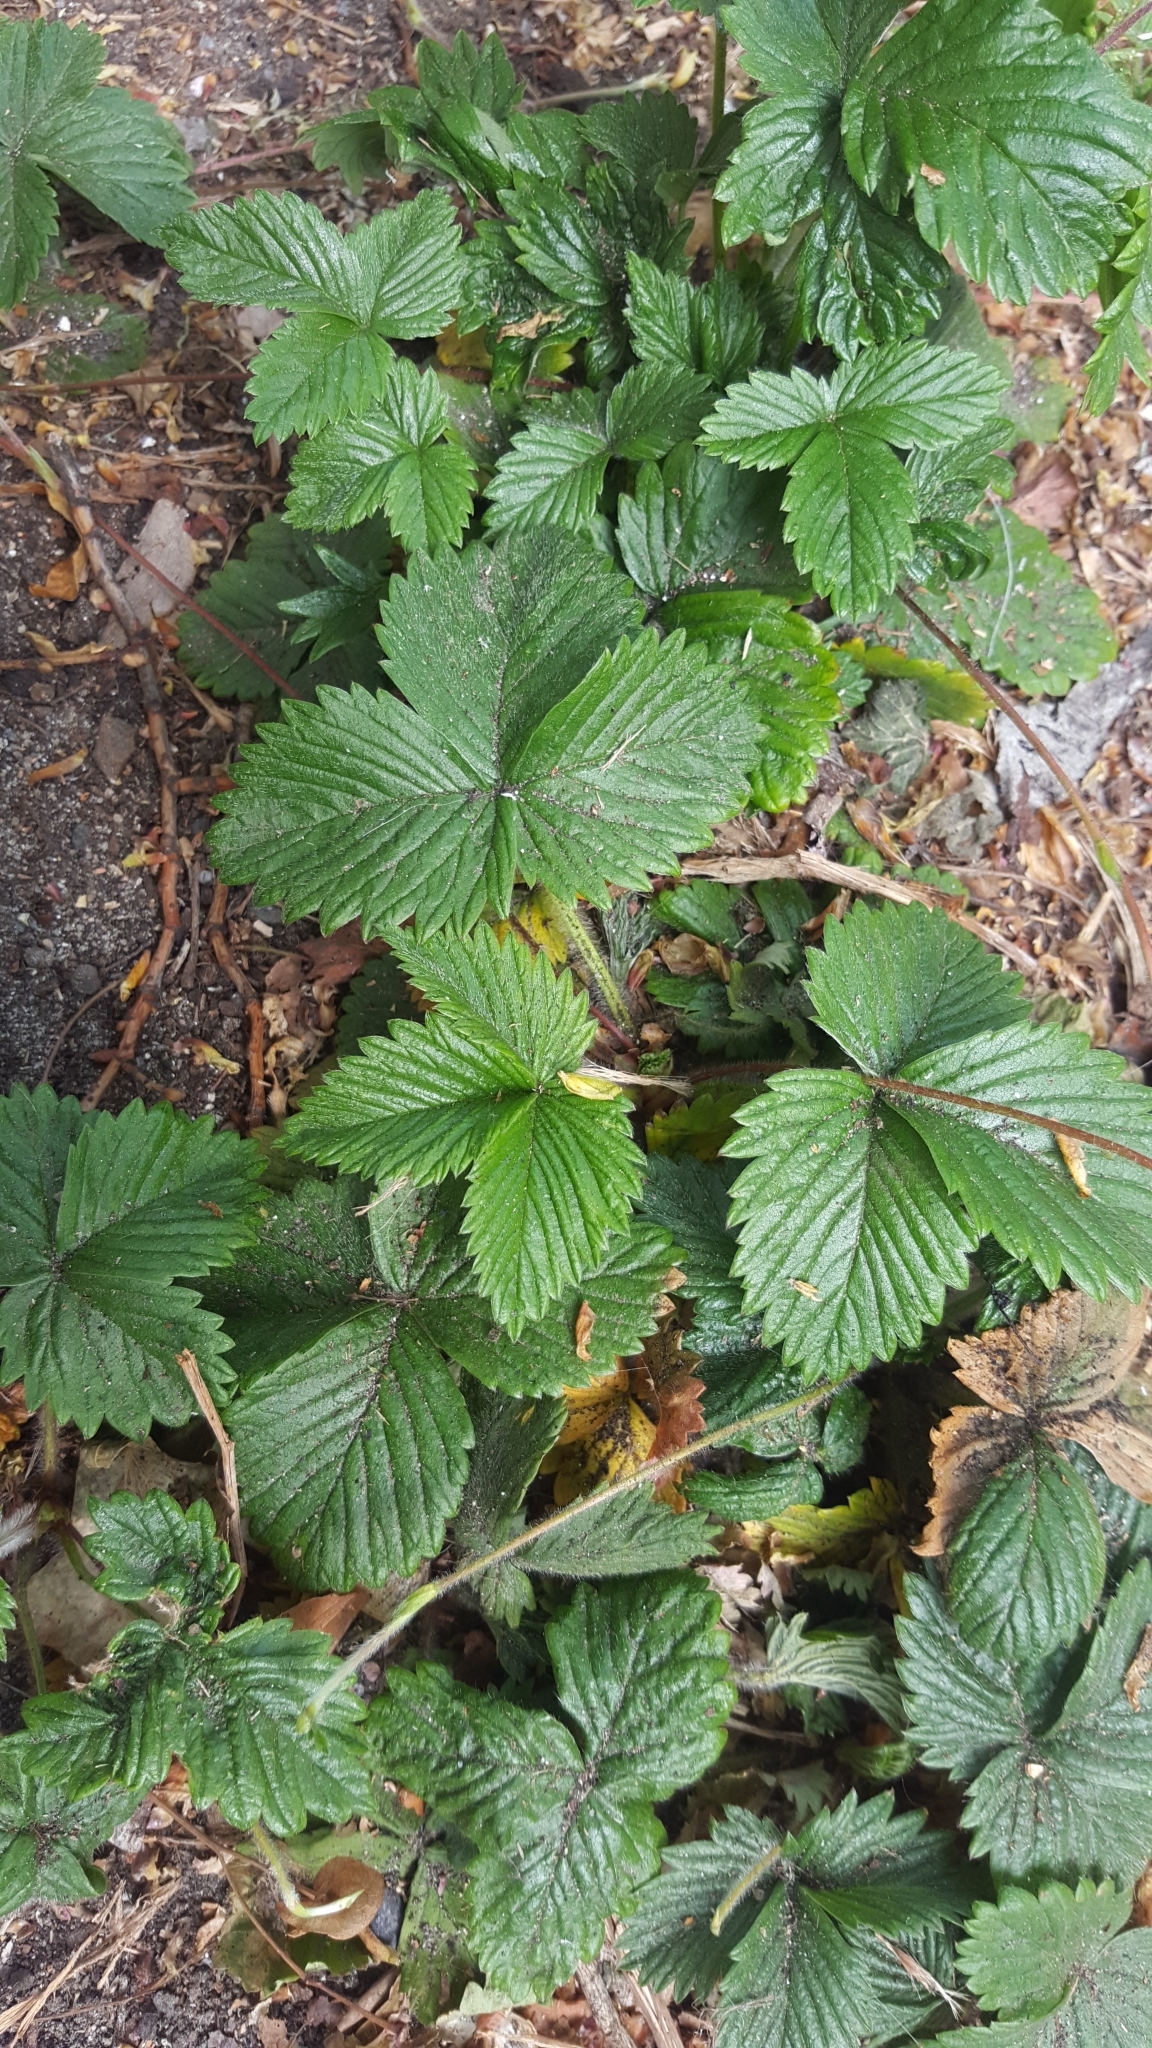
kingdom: Plantae
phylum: Tracheophyta
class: Magnoliopsida
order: Rosales
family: Rosaceae
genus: Fragaria
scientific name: Fragaria vesca
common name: Wild strawberry
